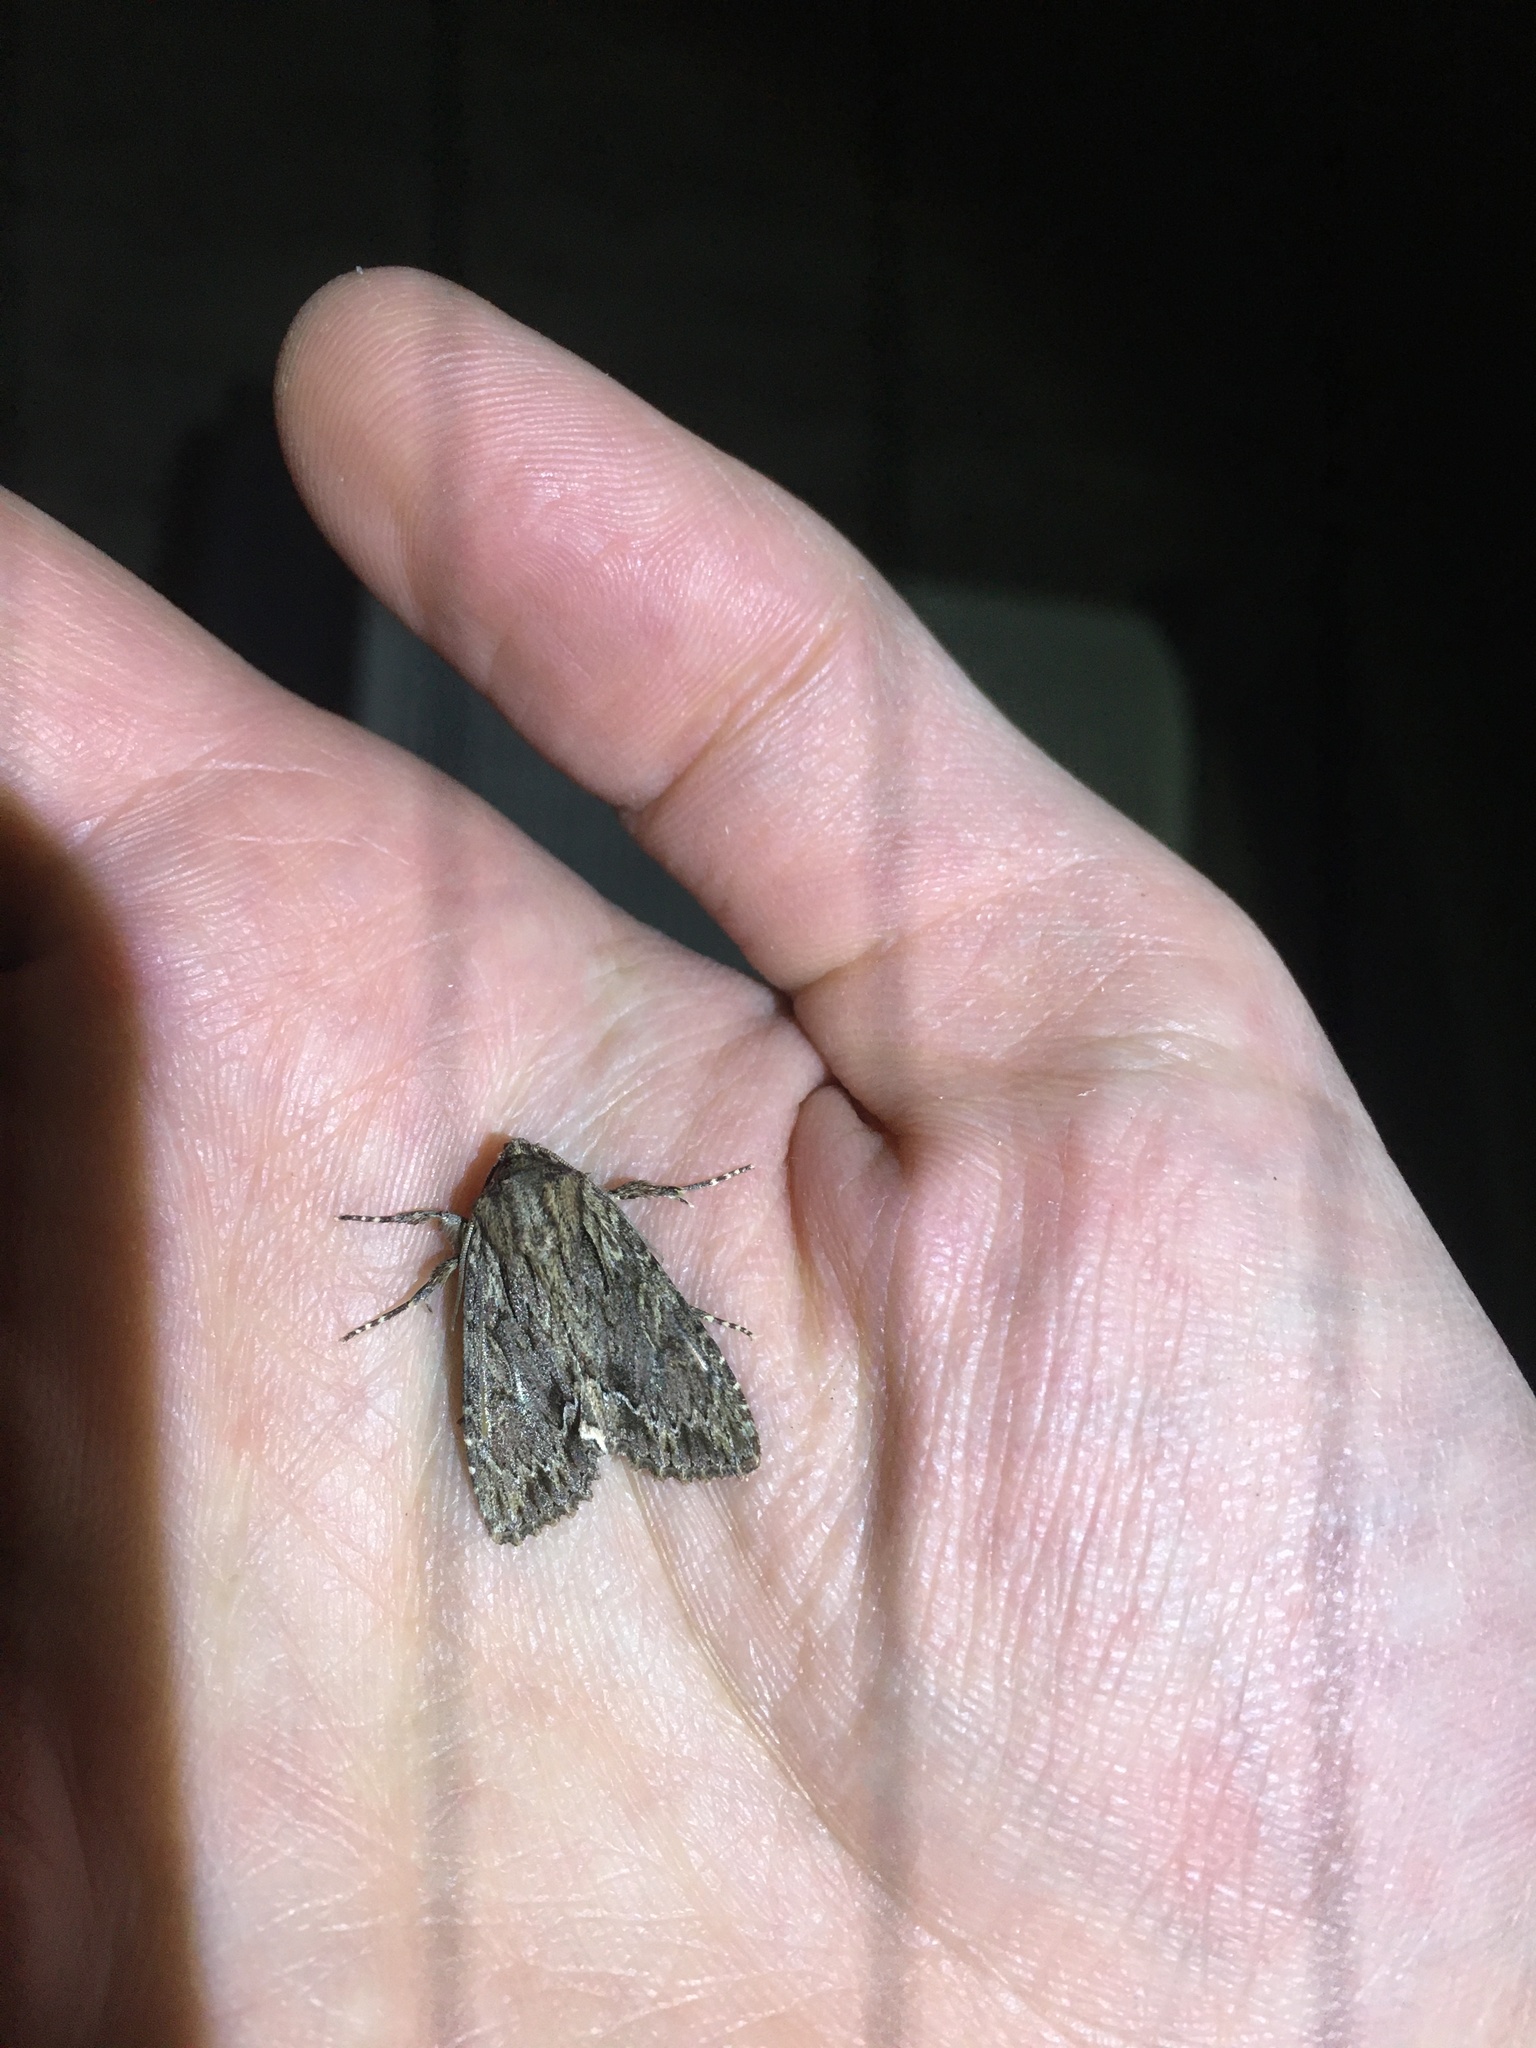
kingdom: Animalia
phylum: Arthropoda
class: Insecta
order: Lepidoptera
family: Noctuidae
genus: Achatia
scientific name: Achatia confusa
